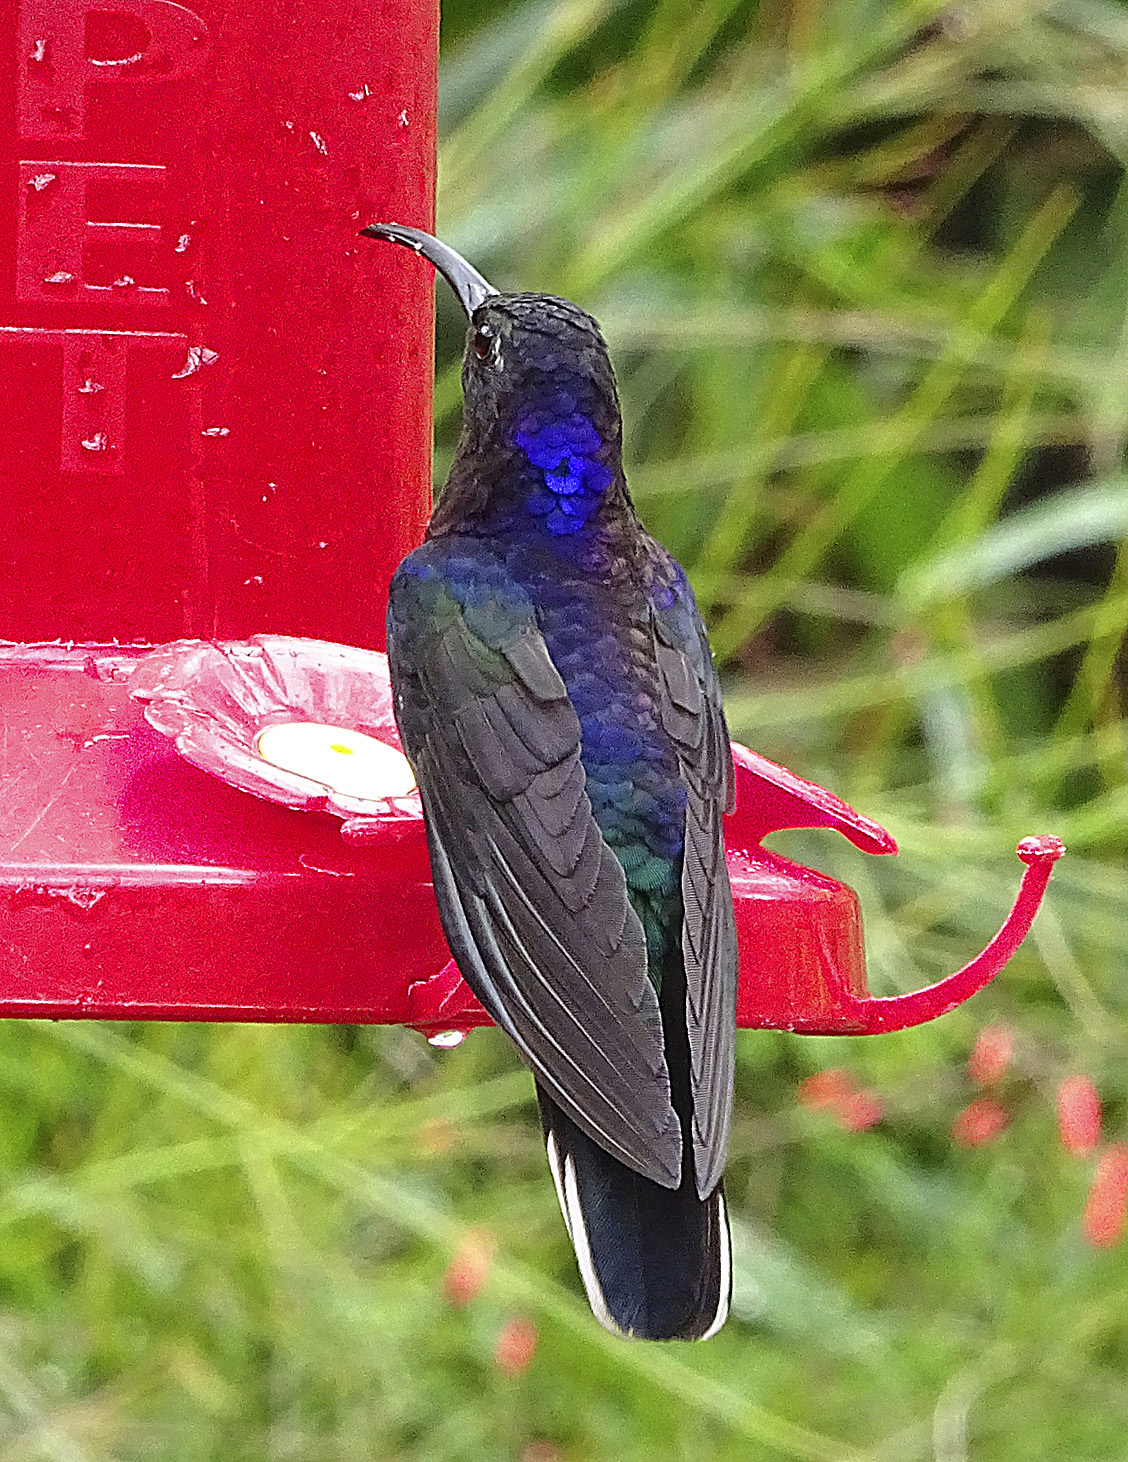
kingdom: Animalia
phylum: Chordata
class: Aves
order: Apodiformes
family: Trochilidae
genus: Campylopterus
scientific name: Campylopterus hemileucurus
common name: Violet sabrewing
